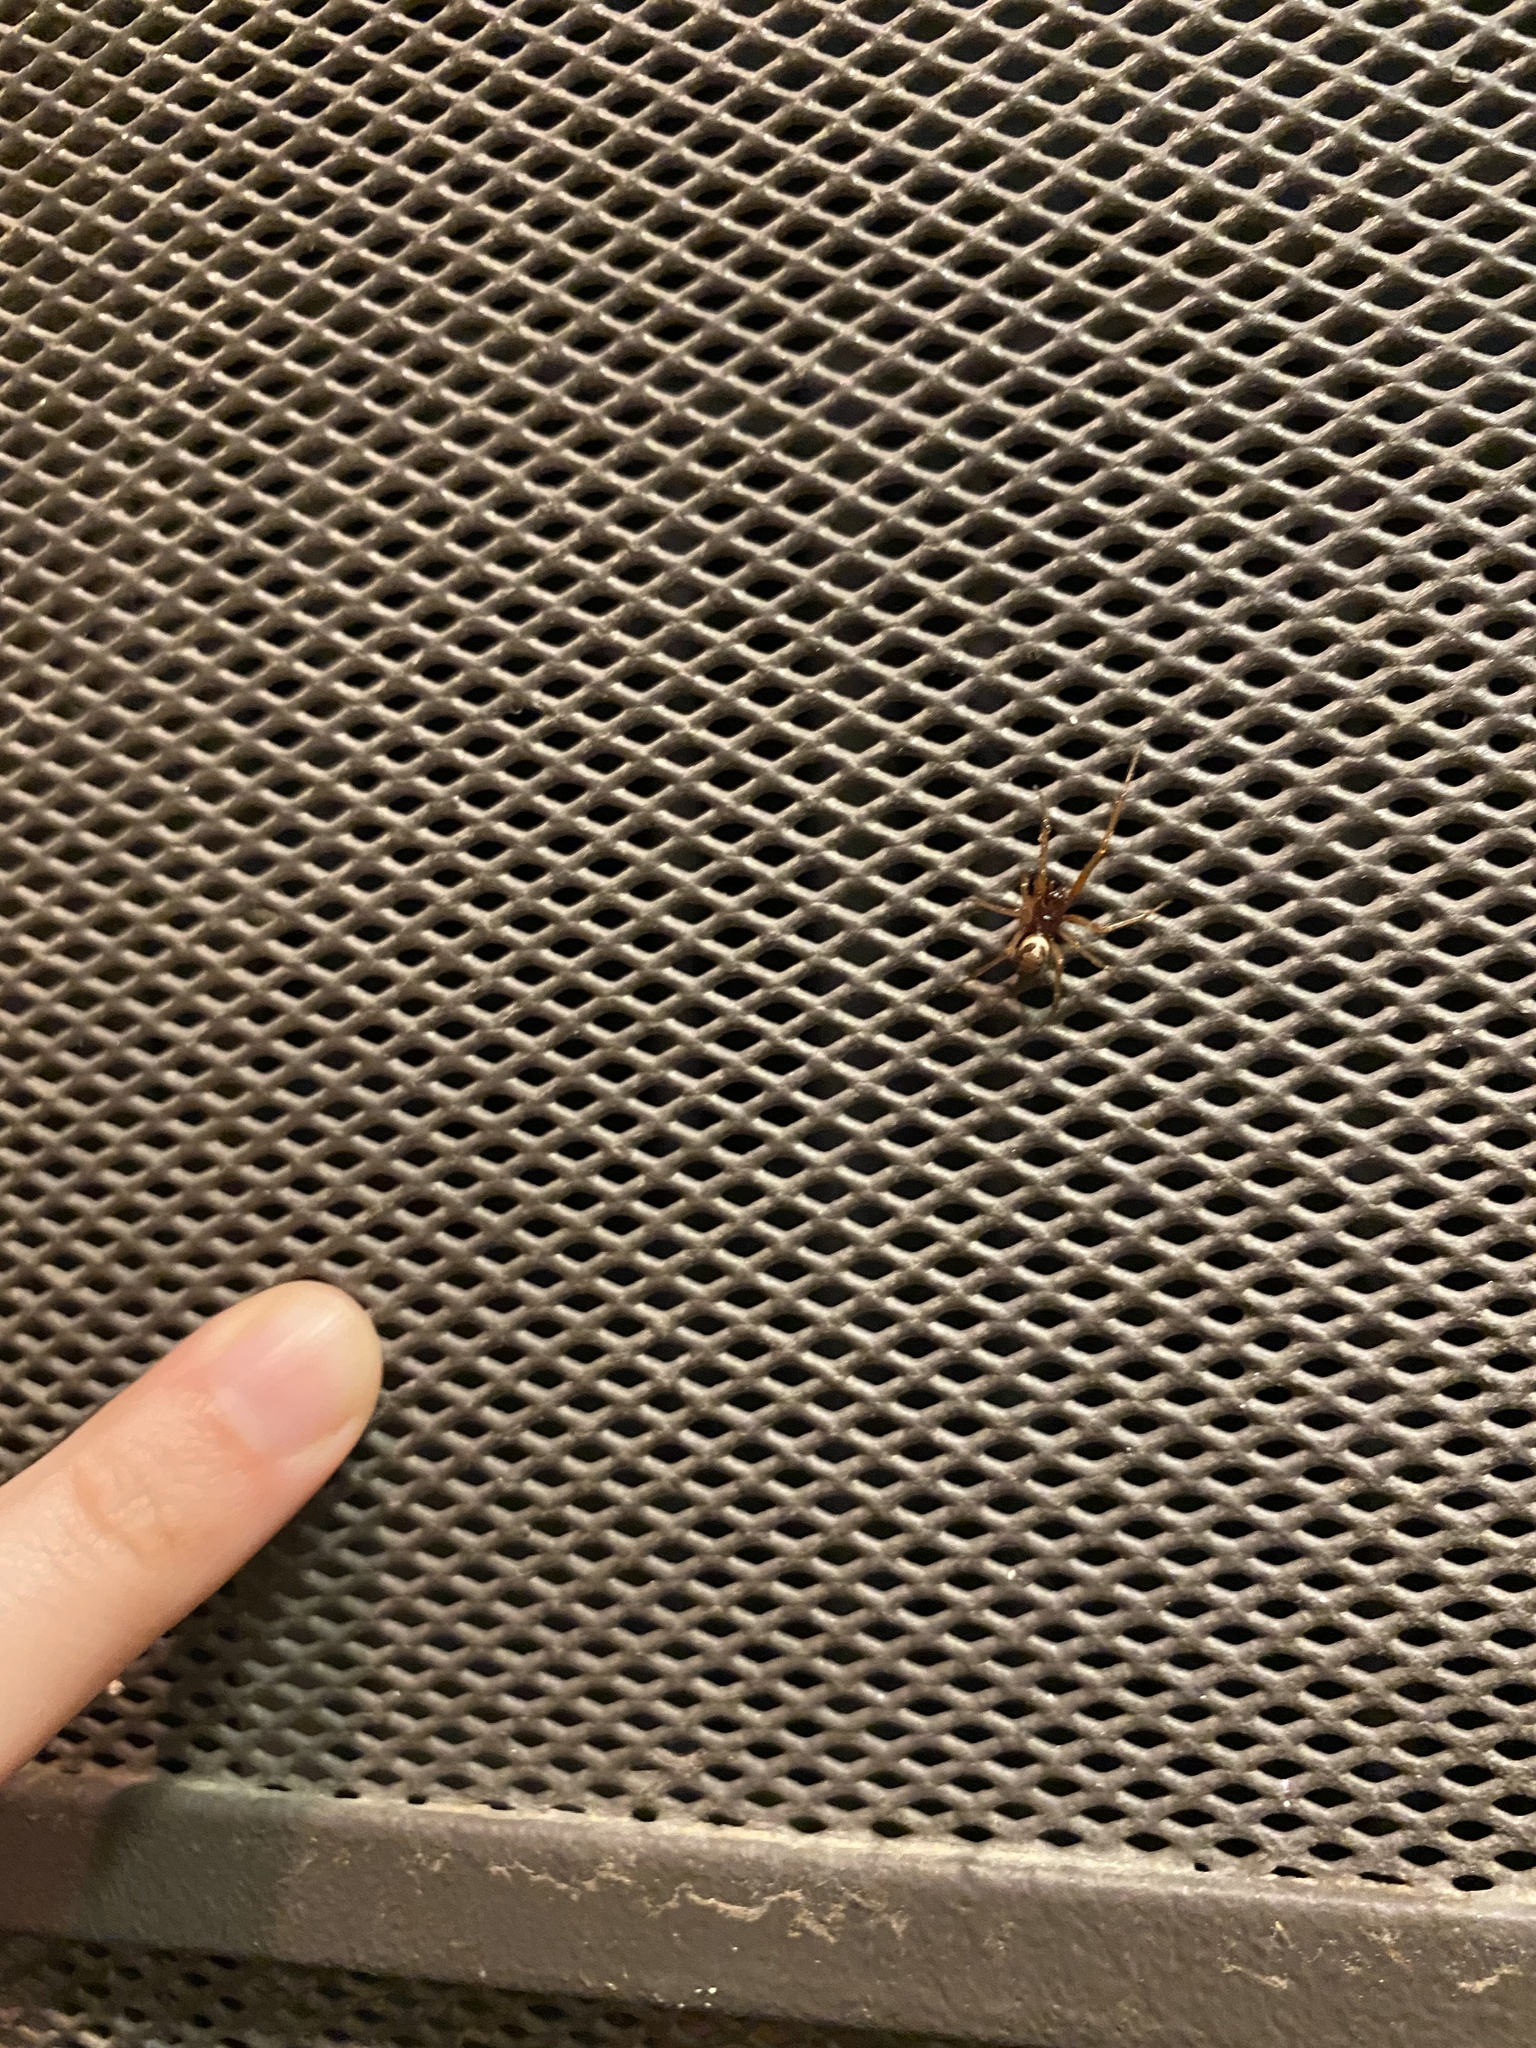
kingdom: Animalia
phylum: Arthropoda
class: Arachnida
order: Araneae
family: Theridiidae
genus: Steatoda
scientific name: Steatoda nobilis
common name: Cobweb weaver
